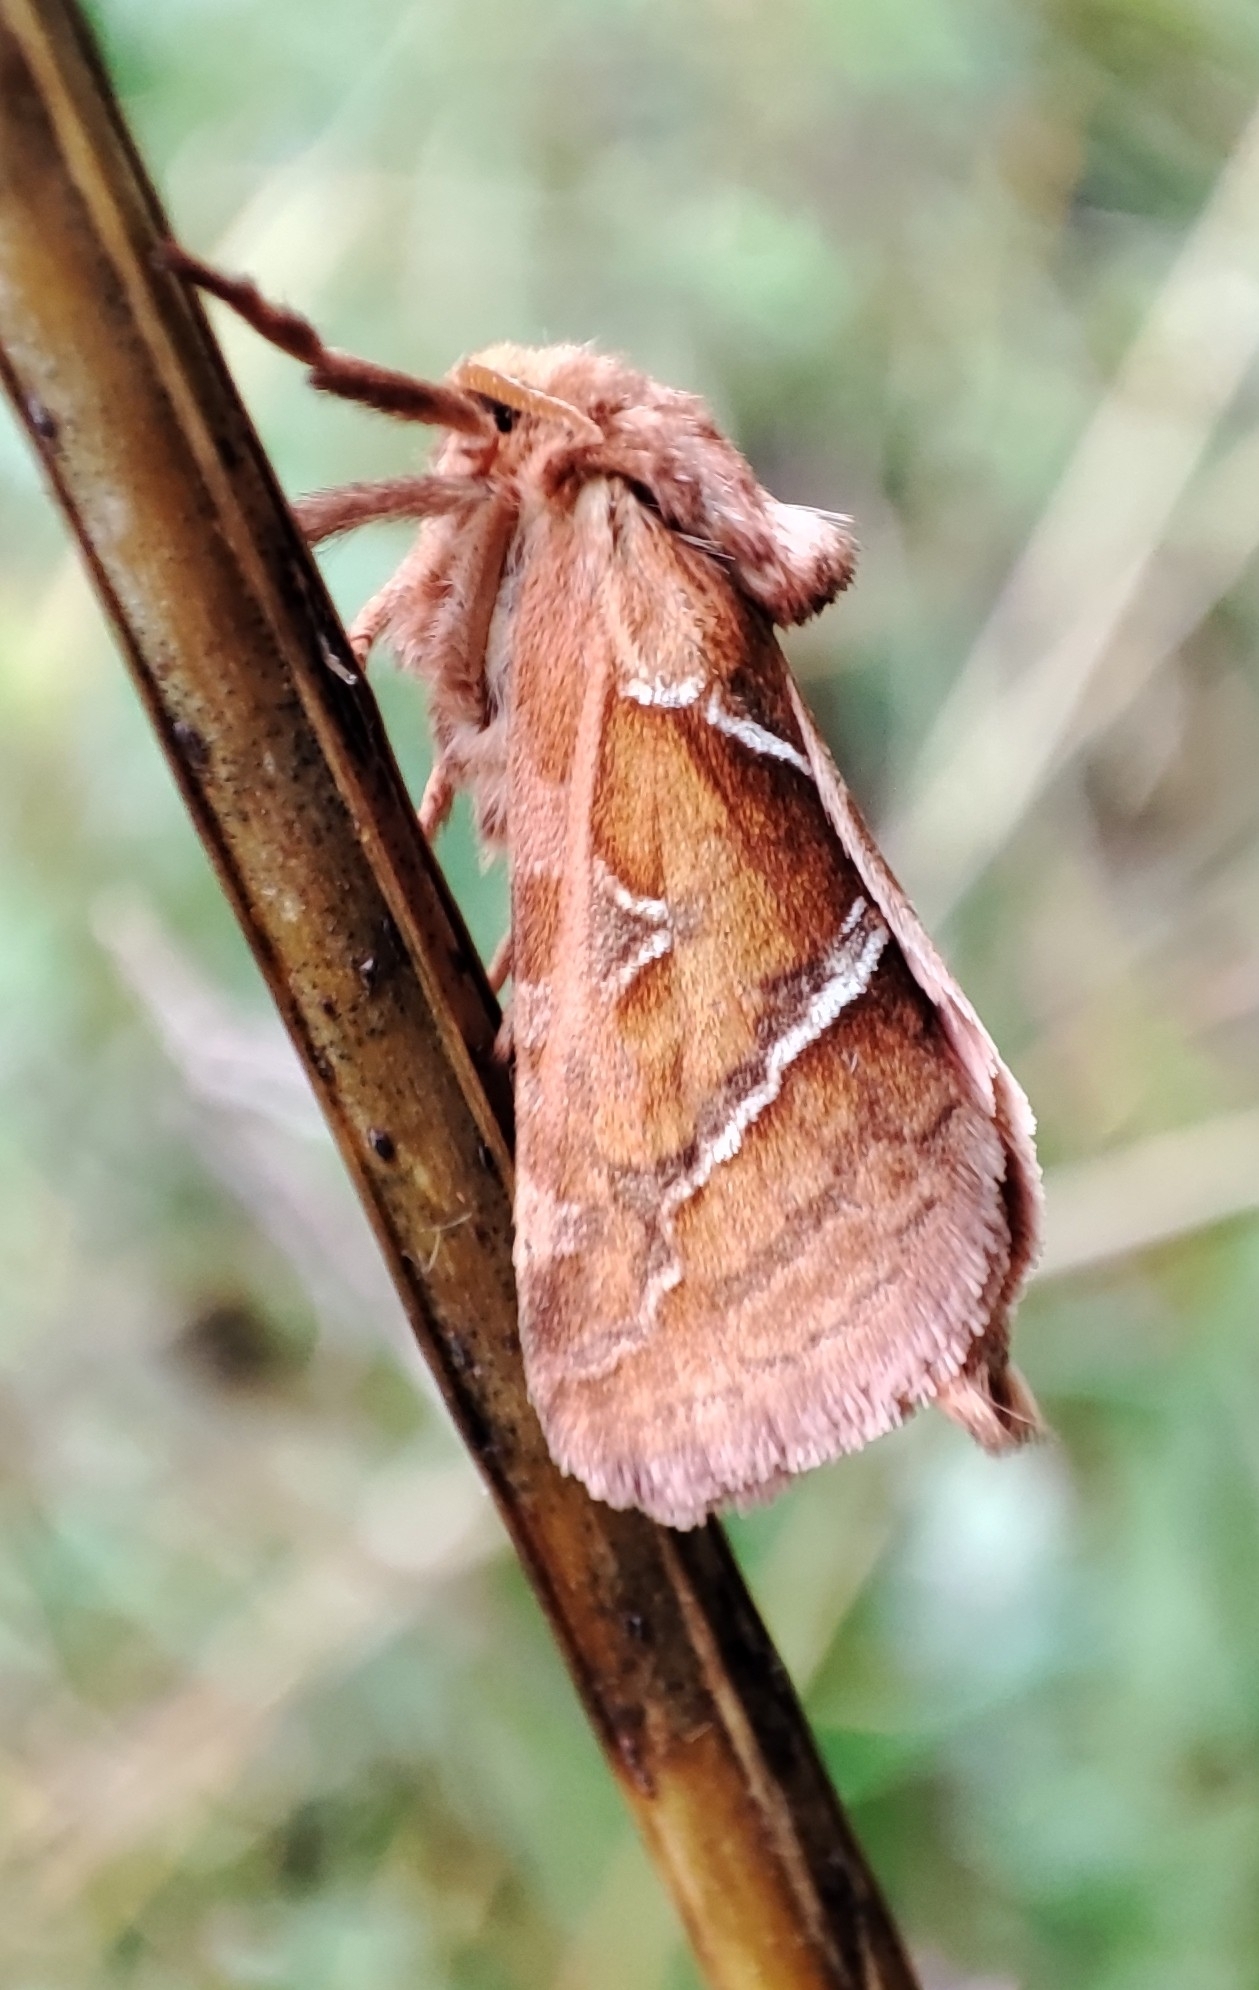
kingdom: Animalia
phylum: Arthropoda
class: Insecta
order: Lepidoptera
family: Hepialidae
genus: Triodia
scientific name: Triodia sylvina
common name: Orange swift
